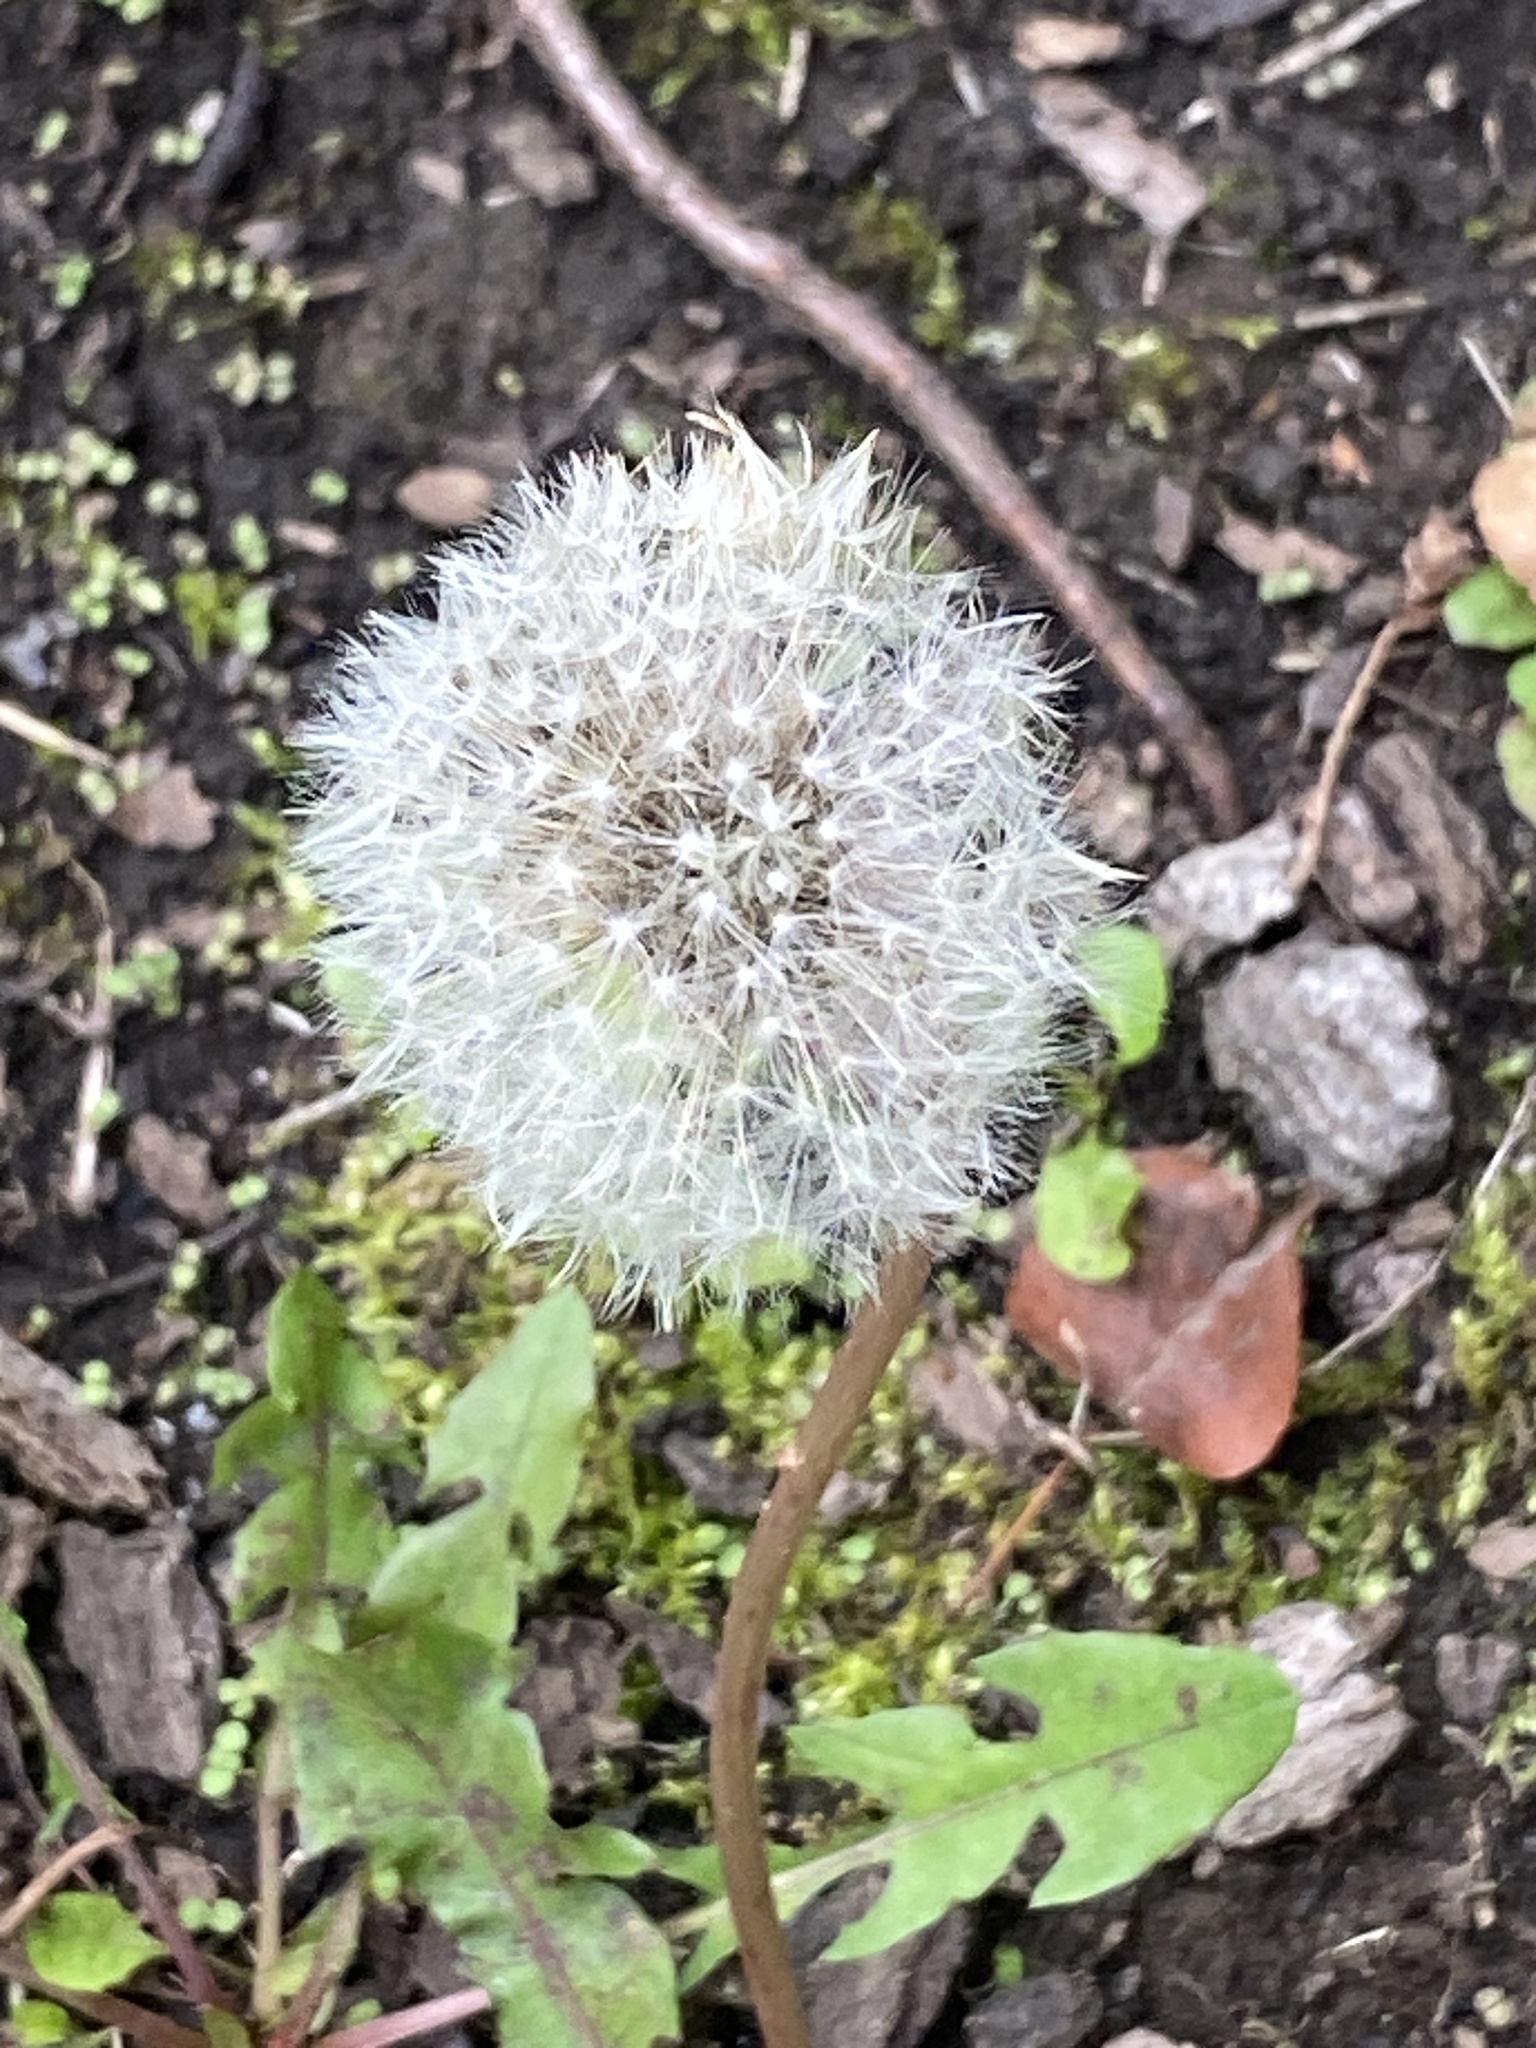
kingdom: Plantae
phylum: Tracheophyta
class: Magnoliopsida
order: Asterales
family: Asteraceae
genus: Taraxacum
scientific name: Taraxacum officinale
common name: Common dandelion
